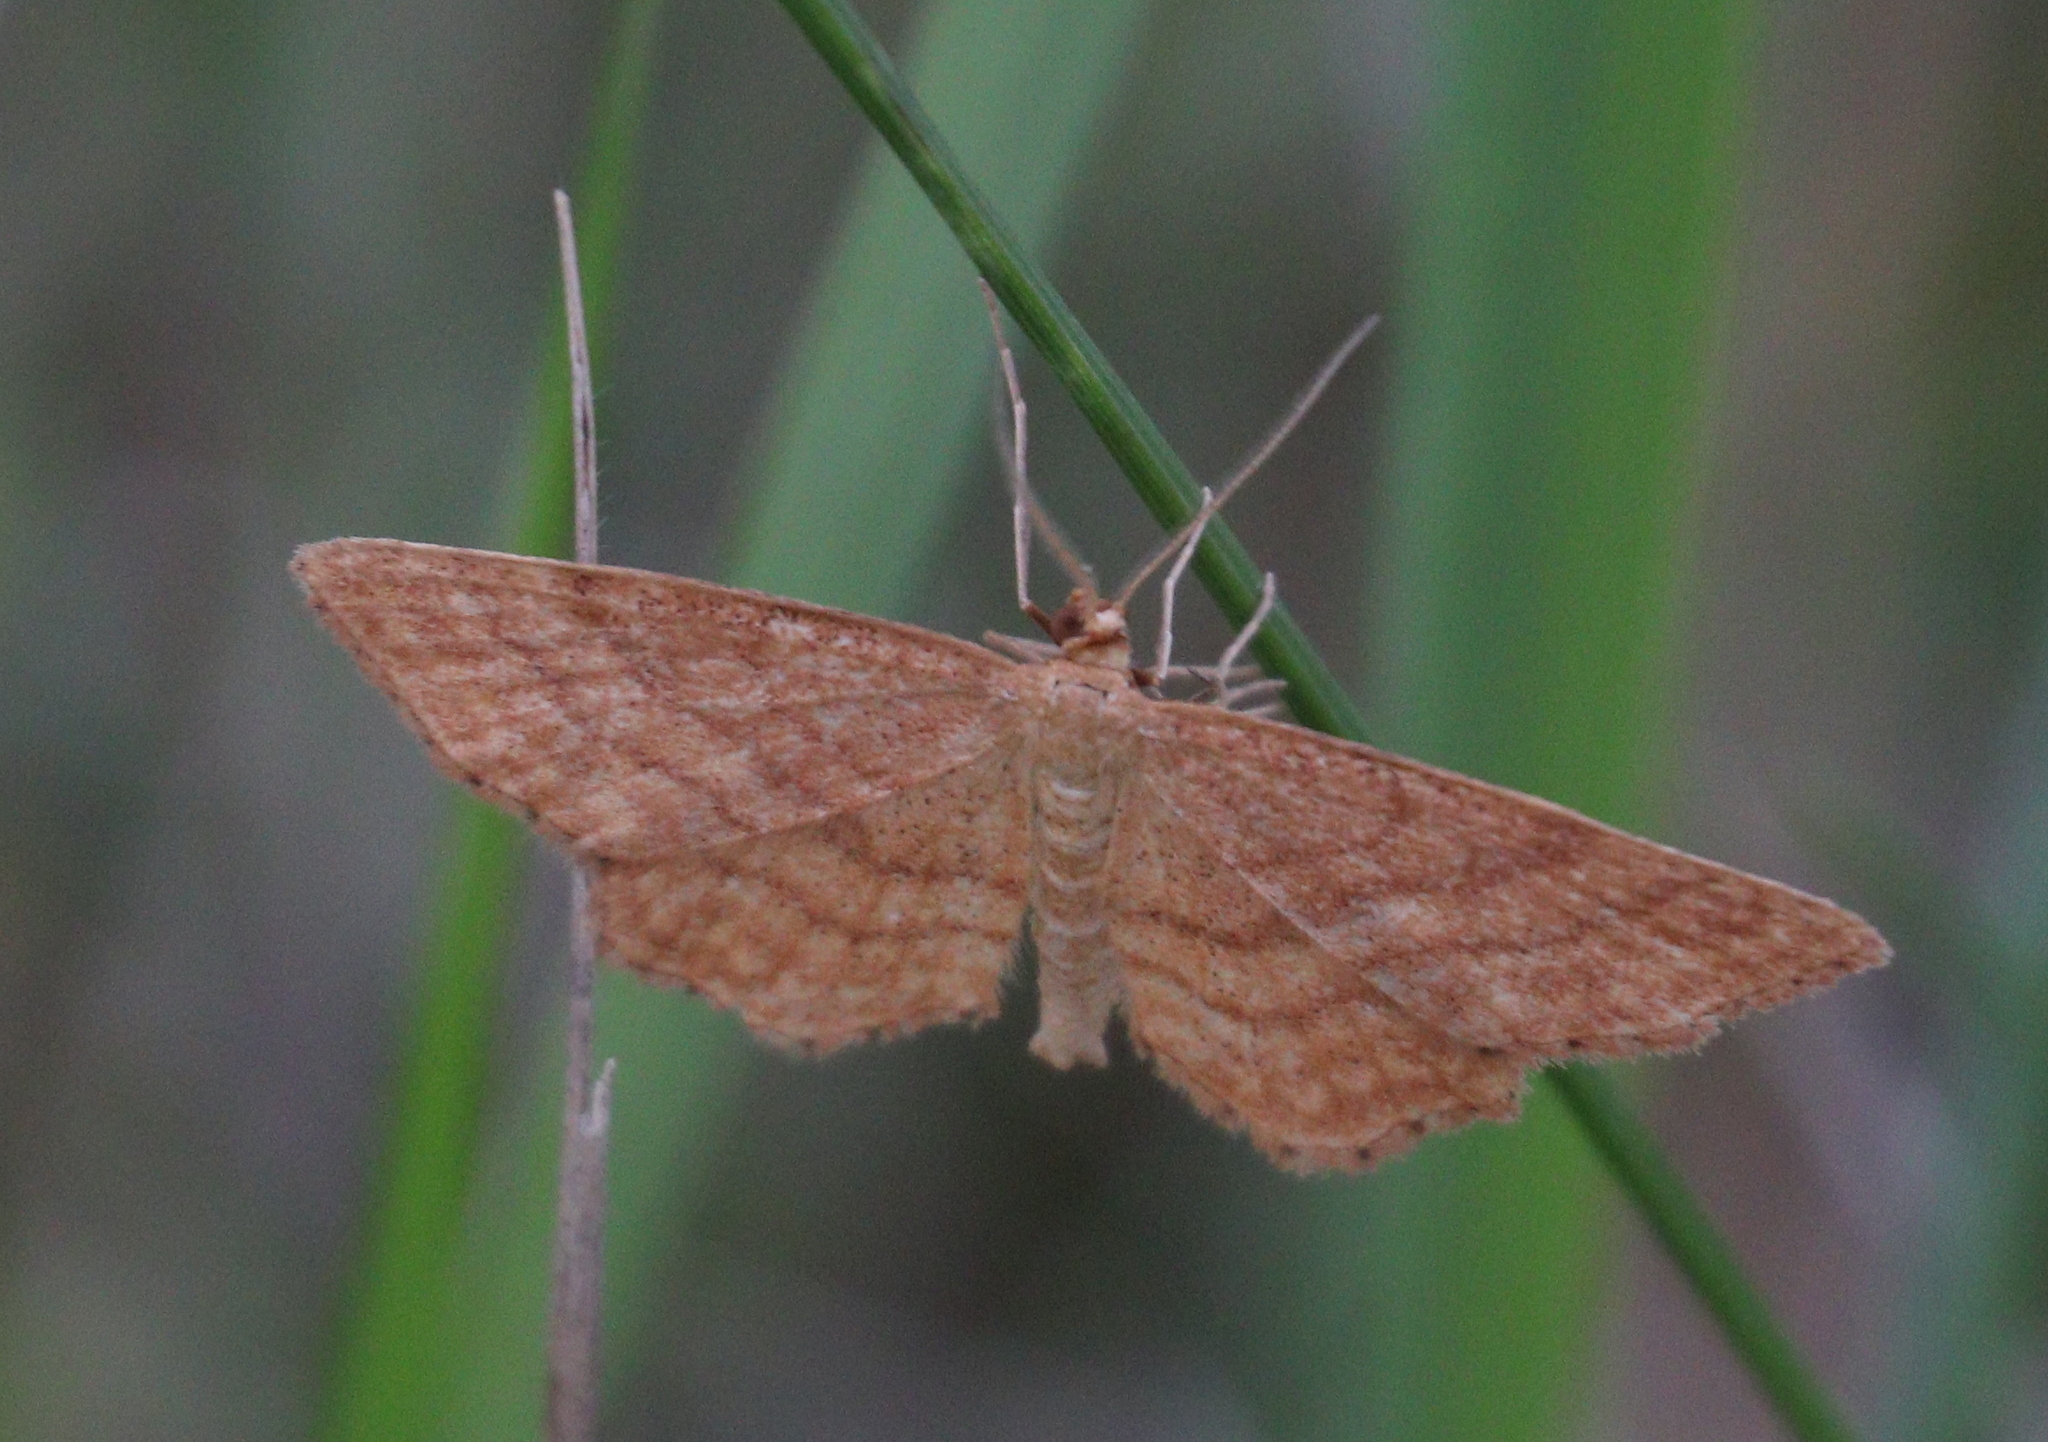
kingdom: Animalia
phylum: Arthropoda
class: Insecta
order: Lepidoptera
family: Geometridae
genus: Idaea
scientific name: Idaea ochrata
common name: Bright wave
